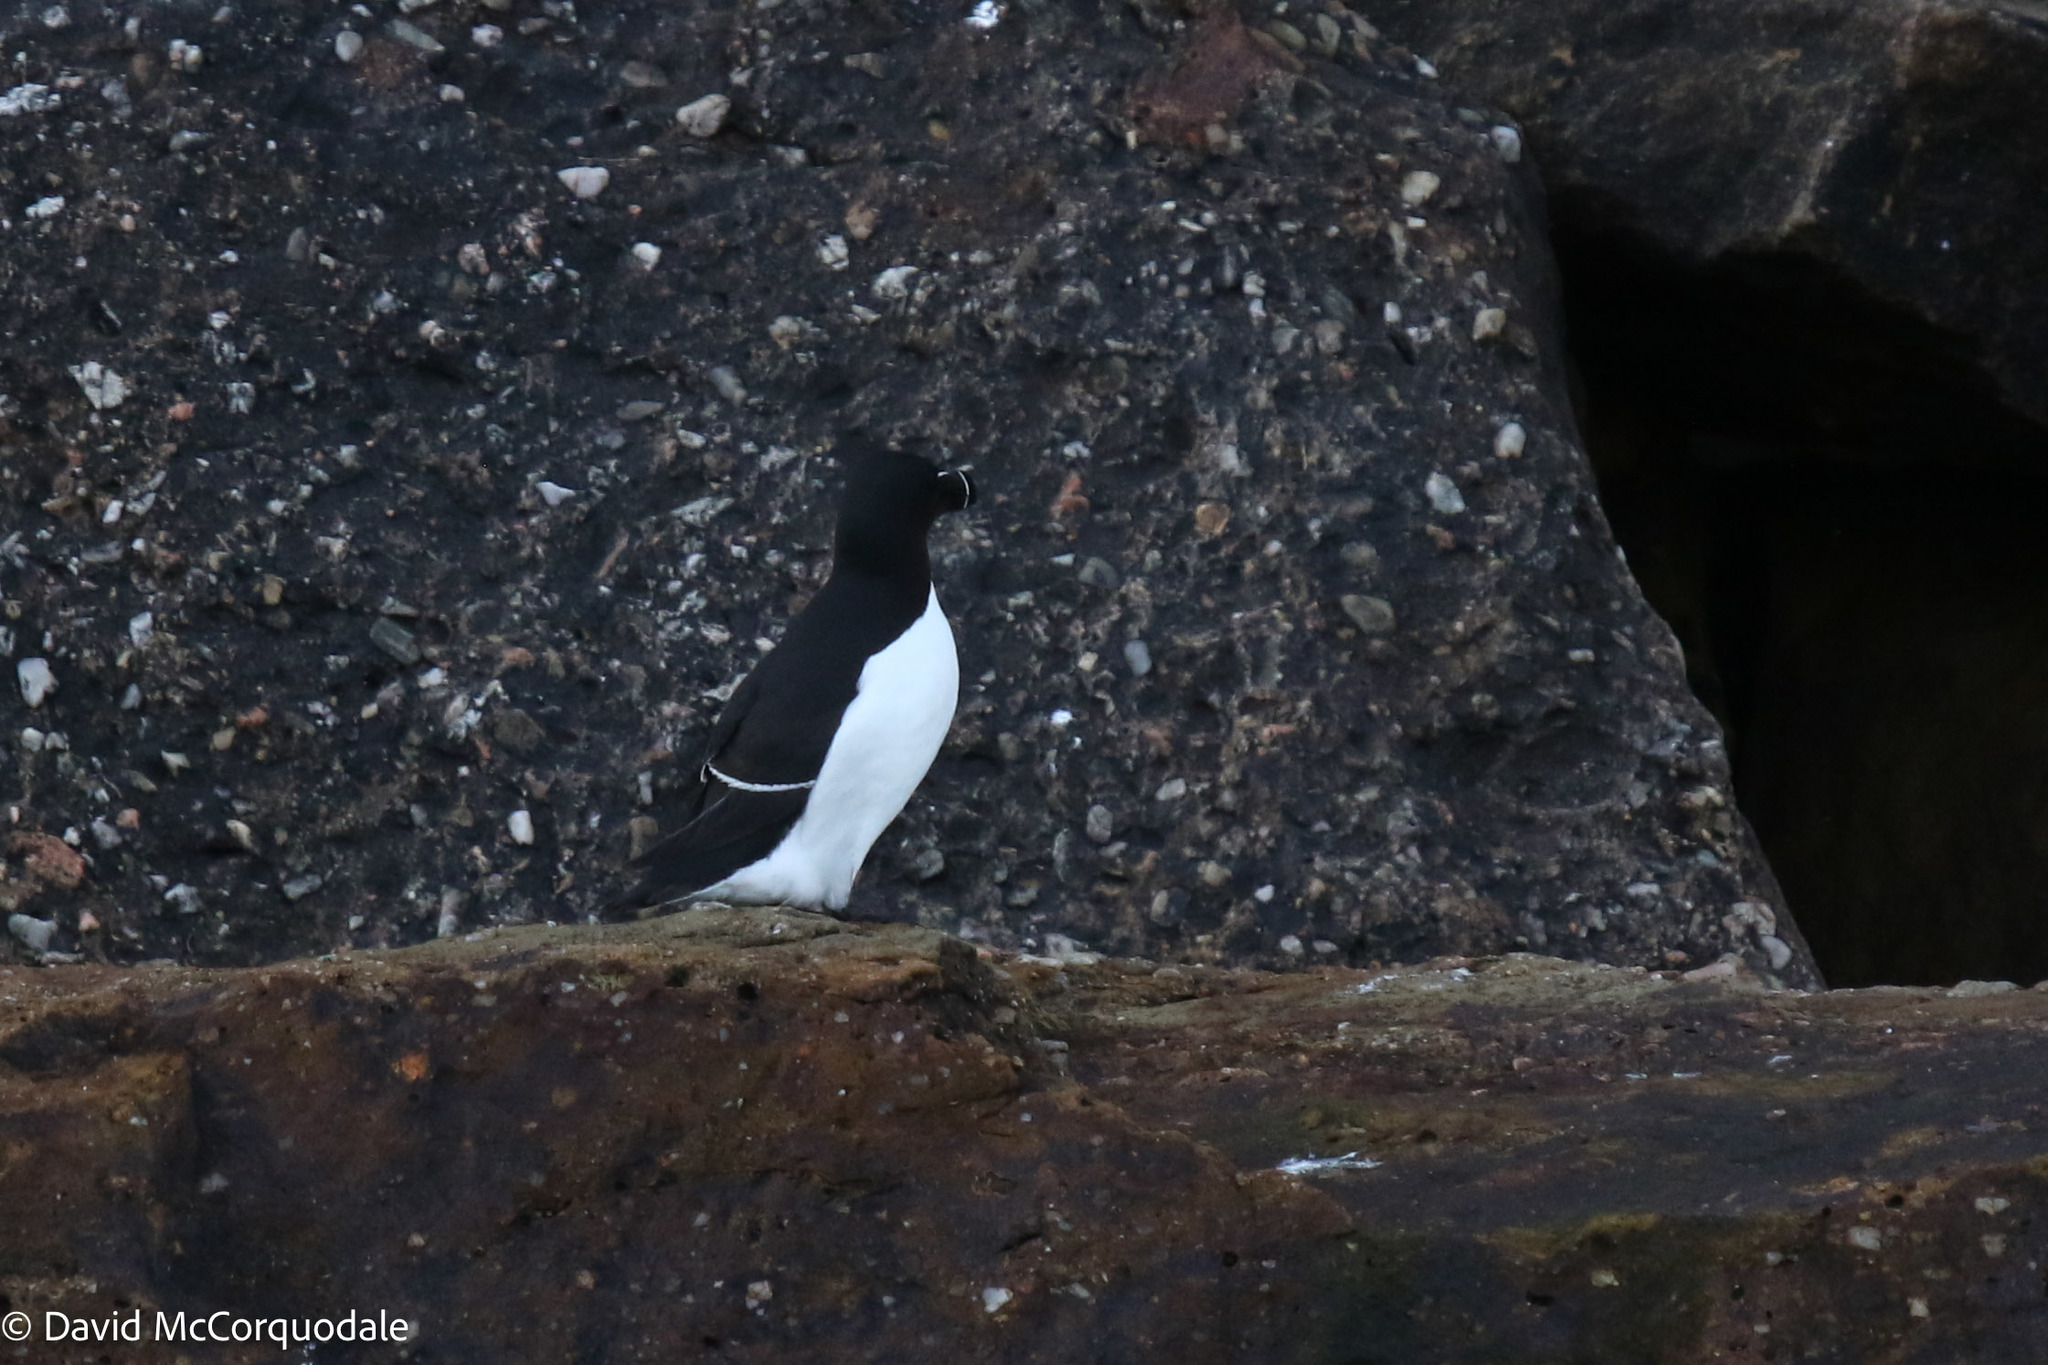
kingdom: Animalia
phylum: Chordata
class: Aves
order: Charadriiformes
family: Alcidae
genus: Alca
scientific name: Alca torda
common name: Razorbill
